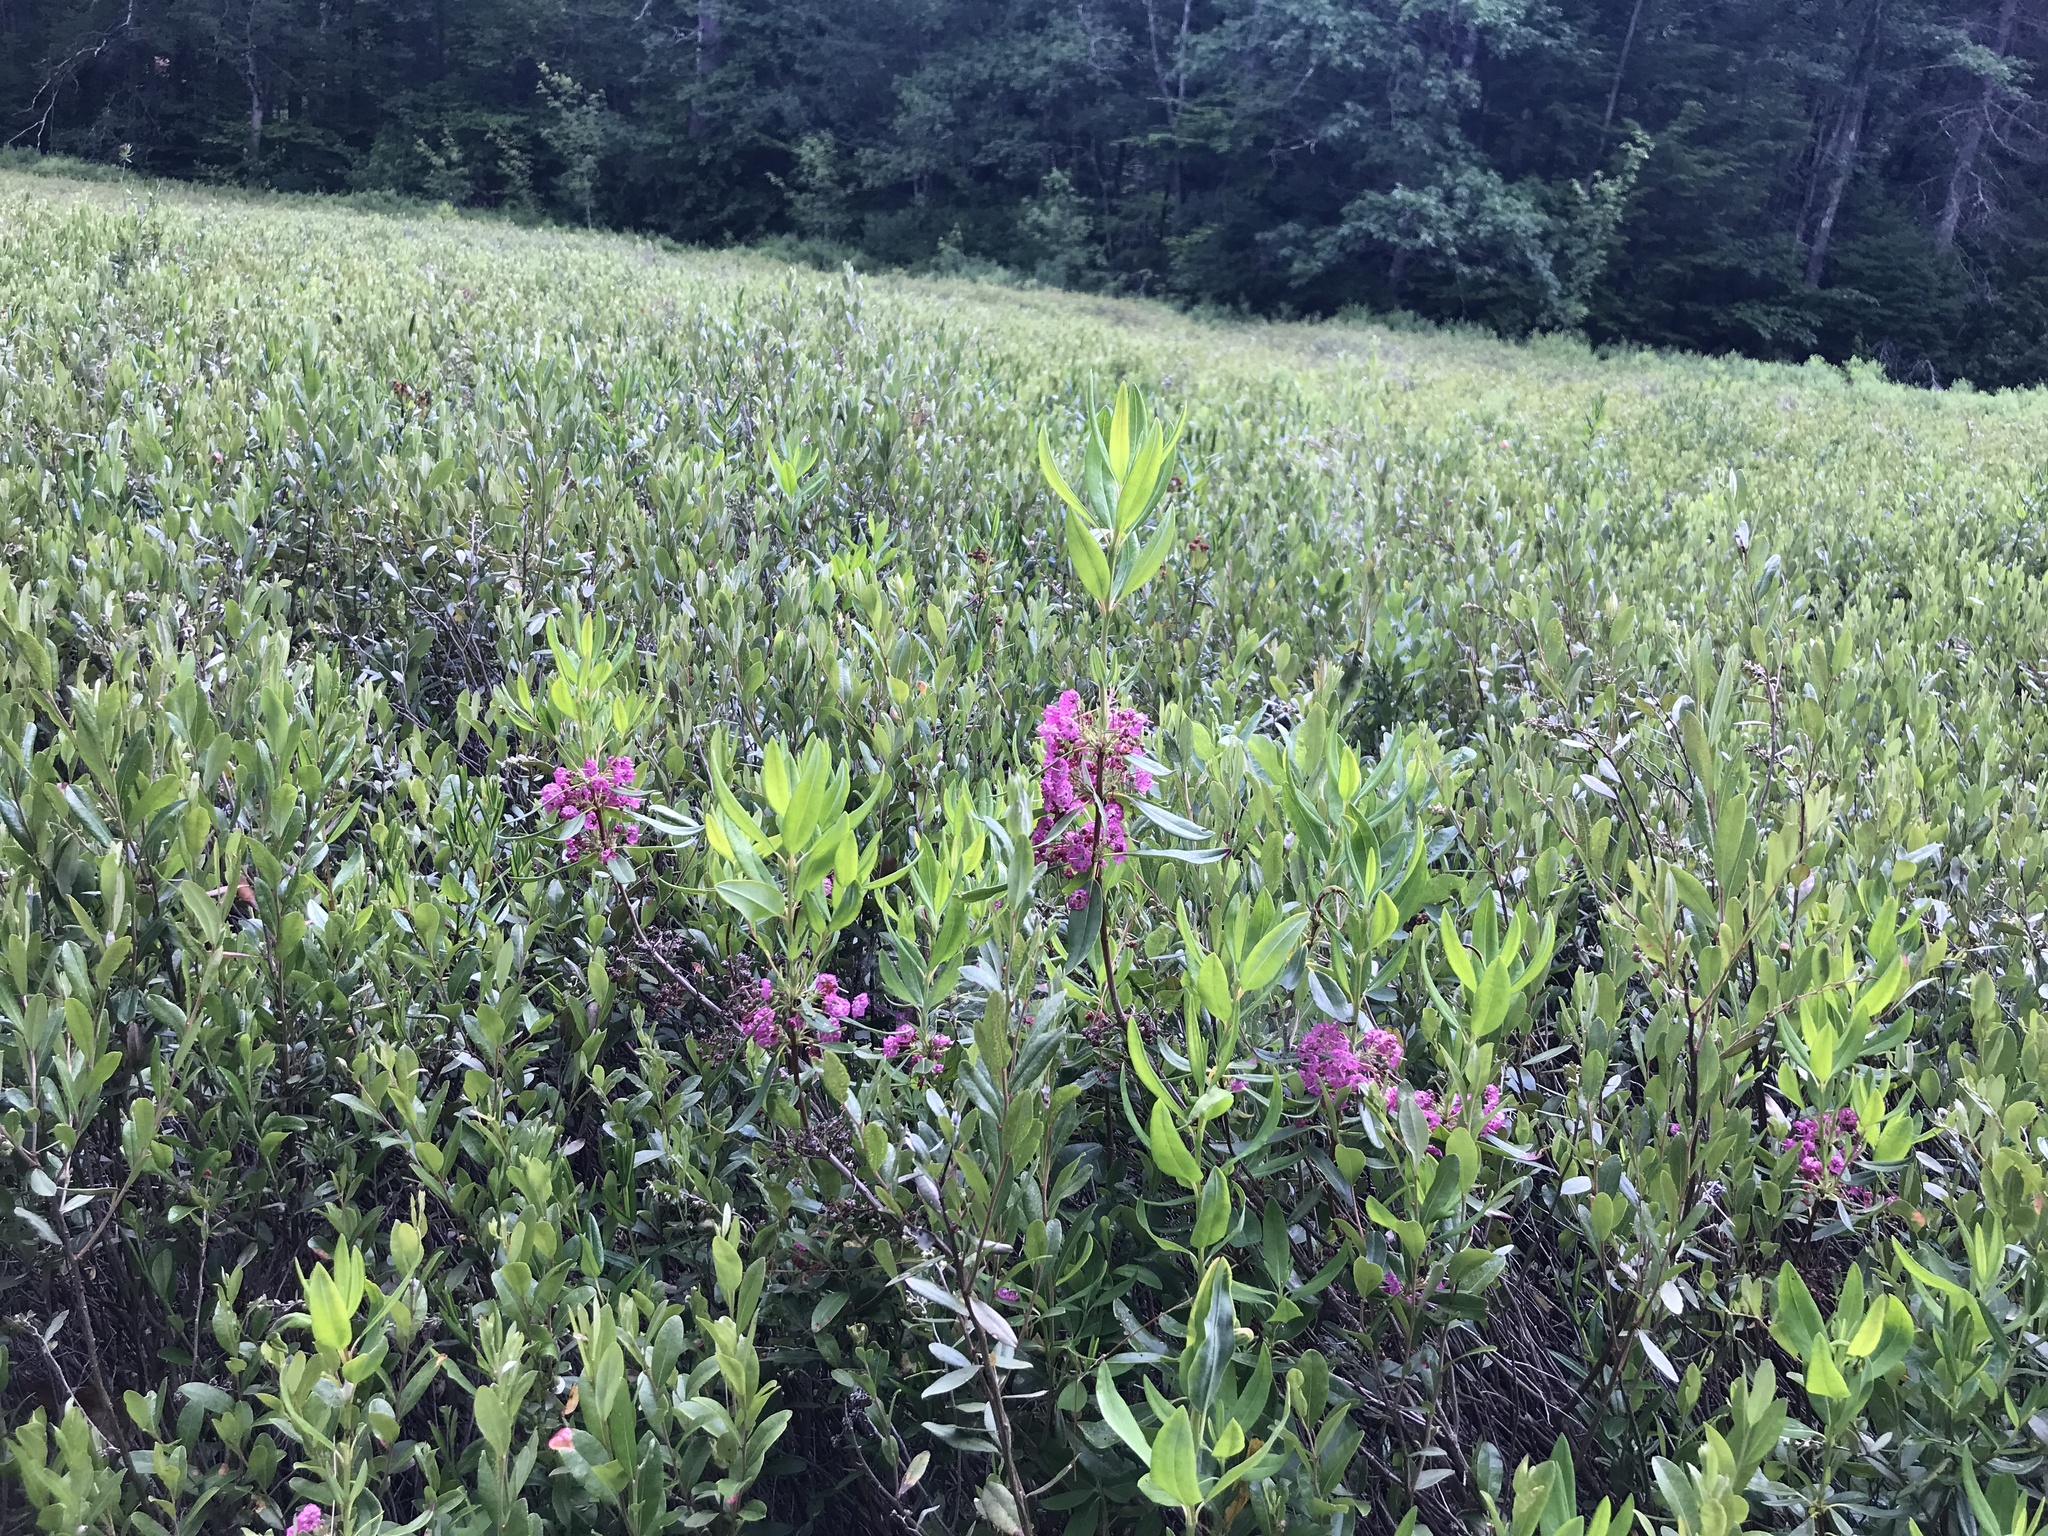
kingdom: Plantae
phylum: Tracheophyta
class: Magnoliopsida
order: Ericales
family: Ericaceae
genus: Kalmia
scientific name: Kalmia angustifolia
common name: Sheep-laurel
